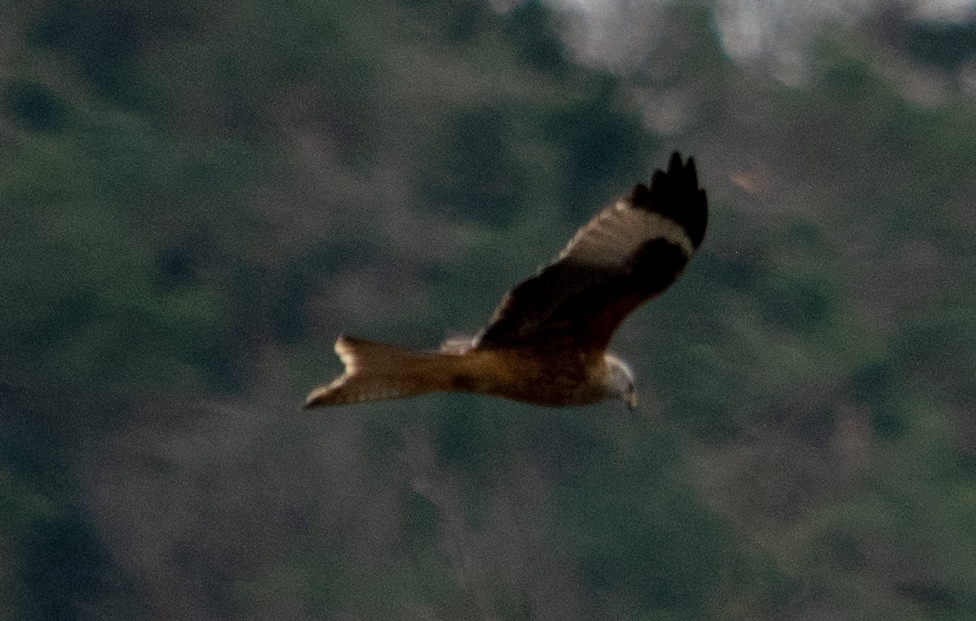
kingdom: Animalia
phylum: Chordata
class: Aves
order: Accipitriformes
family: Accipitridae
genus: Milvus
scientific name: Milvus milvus
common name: Red kite
